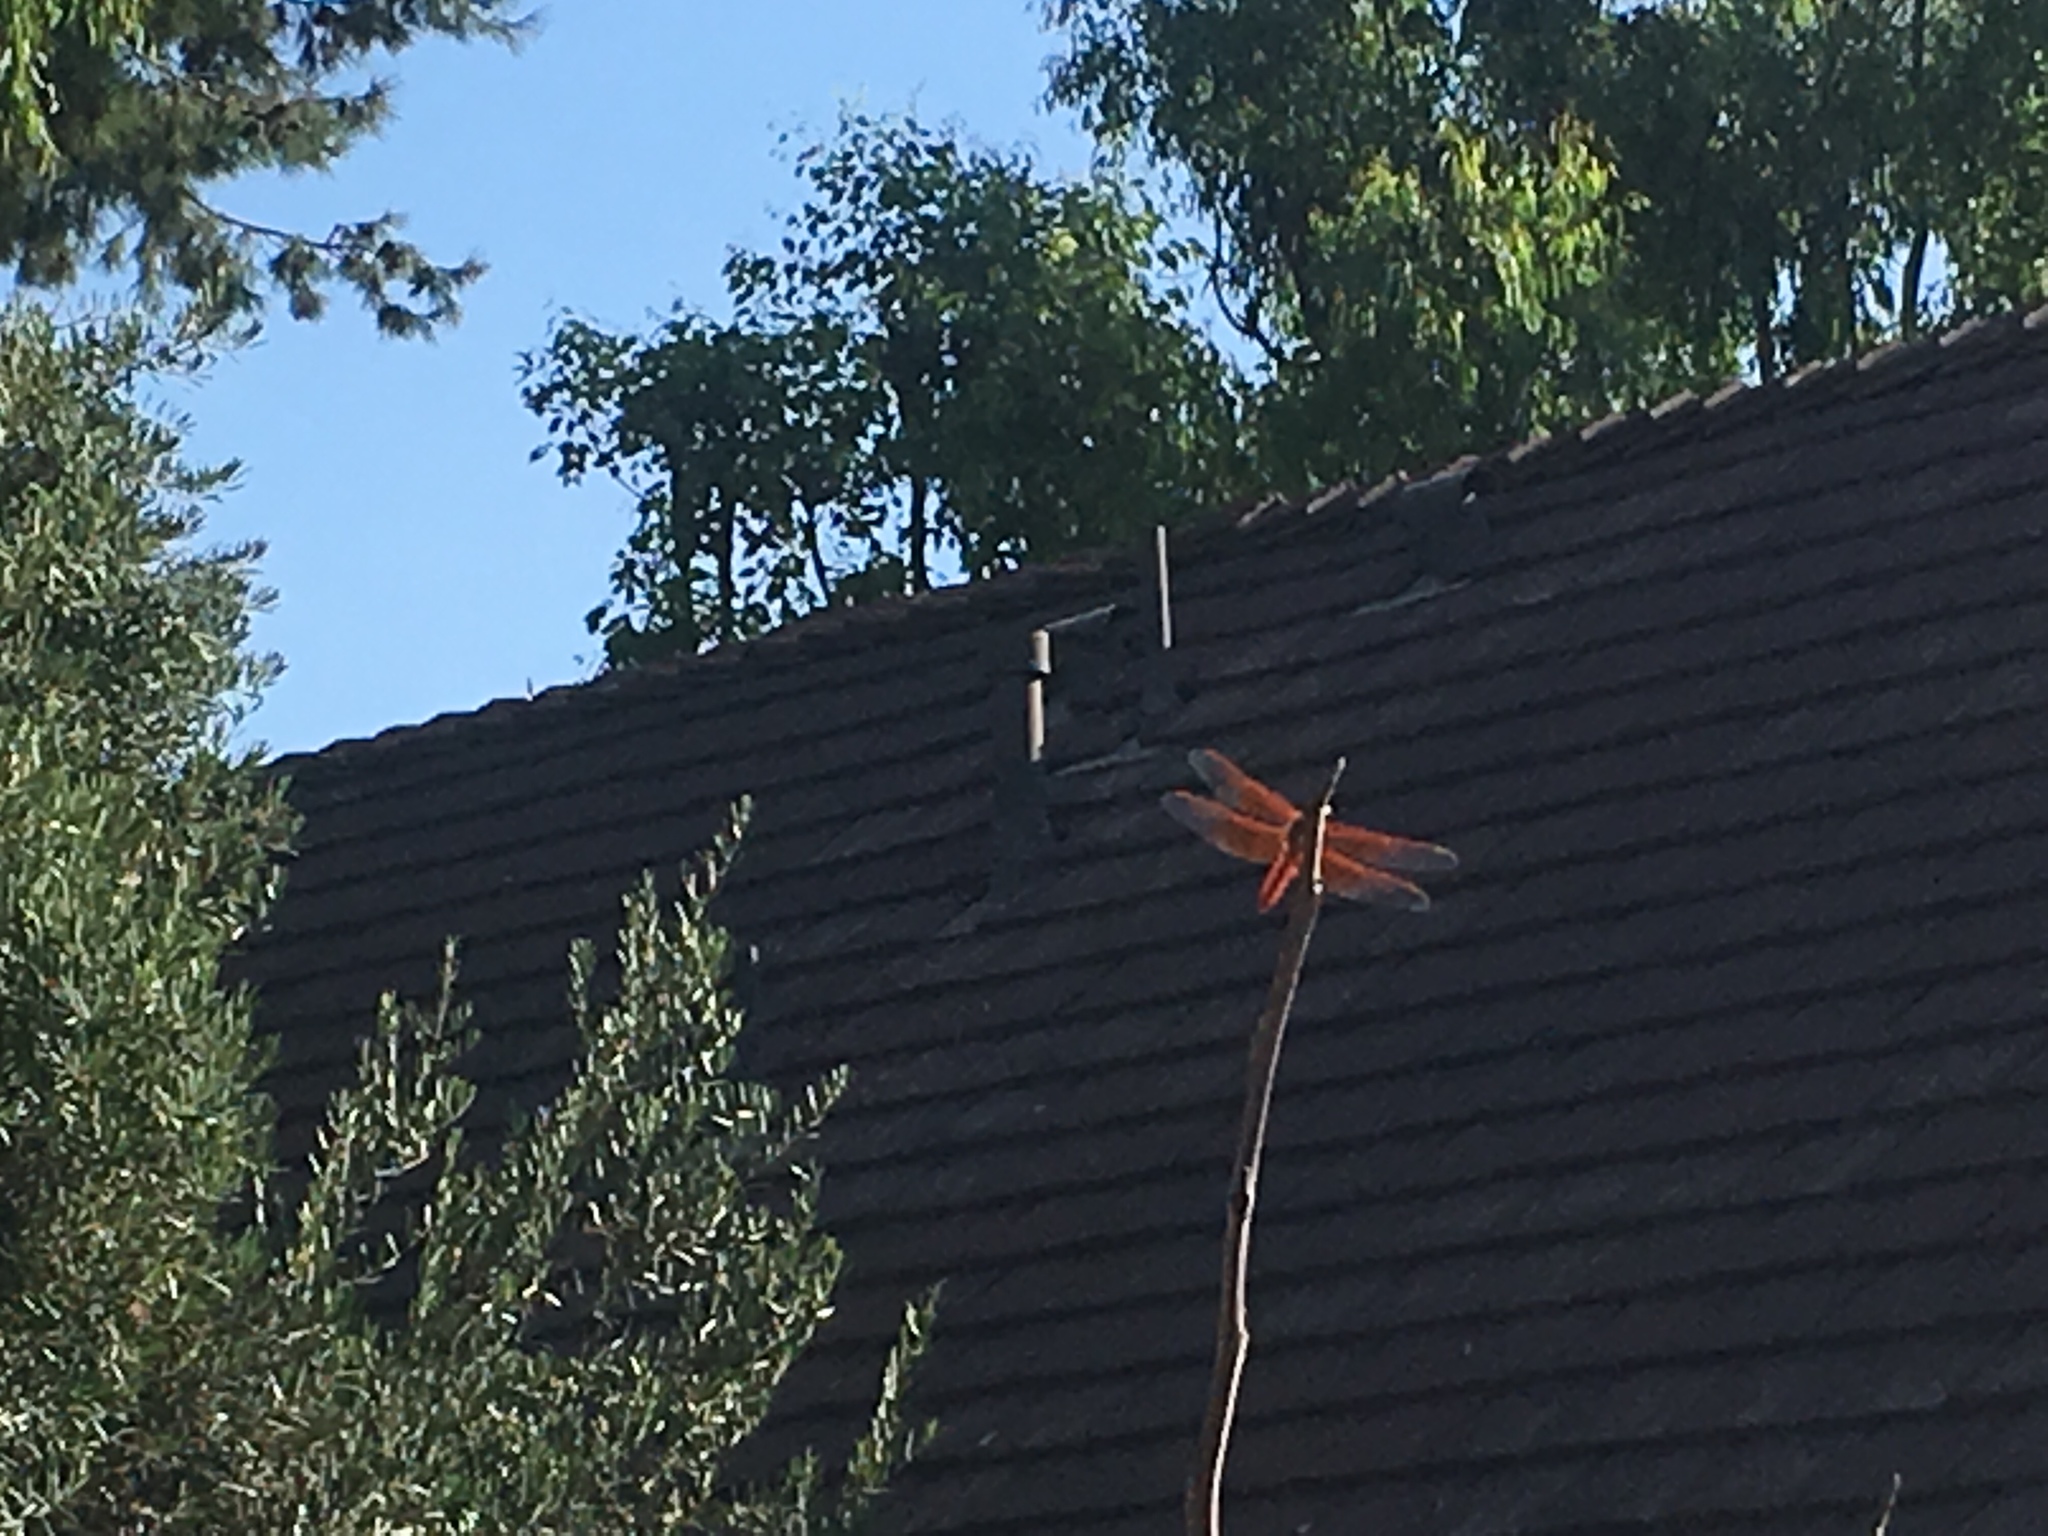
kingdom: Animalia
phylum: Arthropoda
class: Insecta
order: Odonata
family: Libellulidae
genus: Libellula
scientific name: Libellula saturata
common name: Flame skimmer
